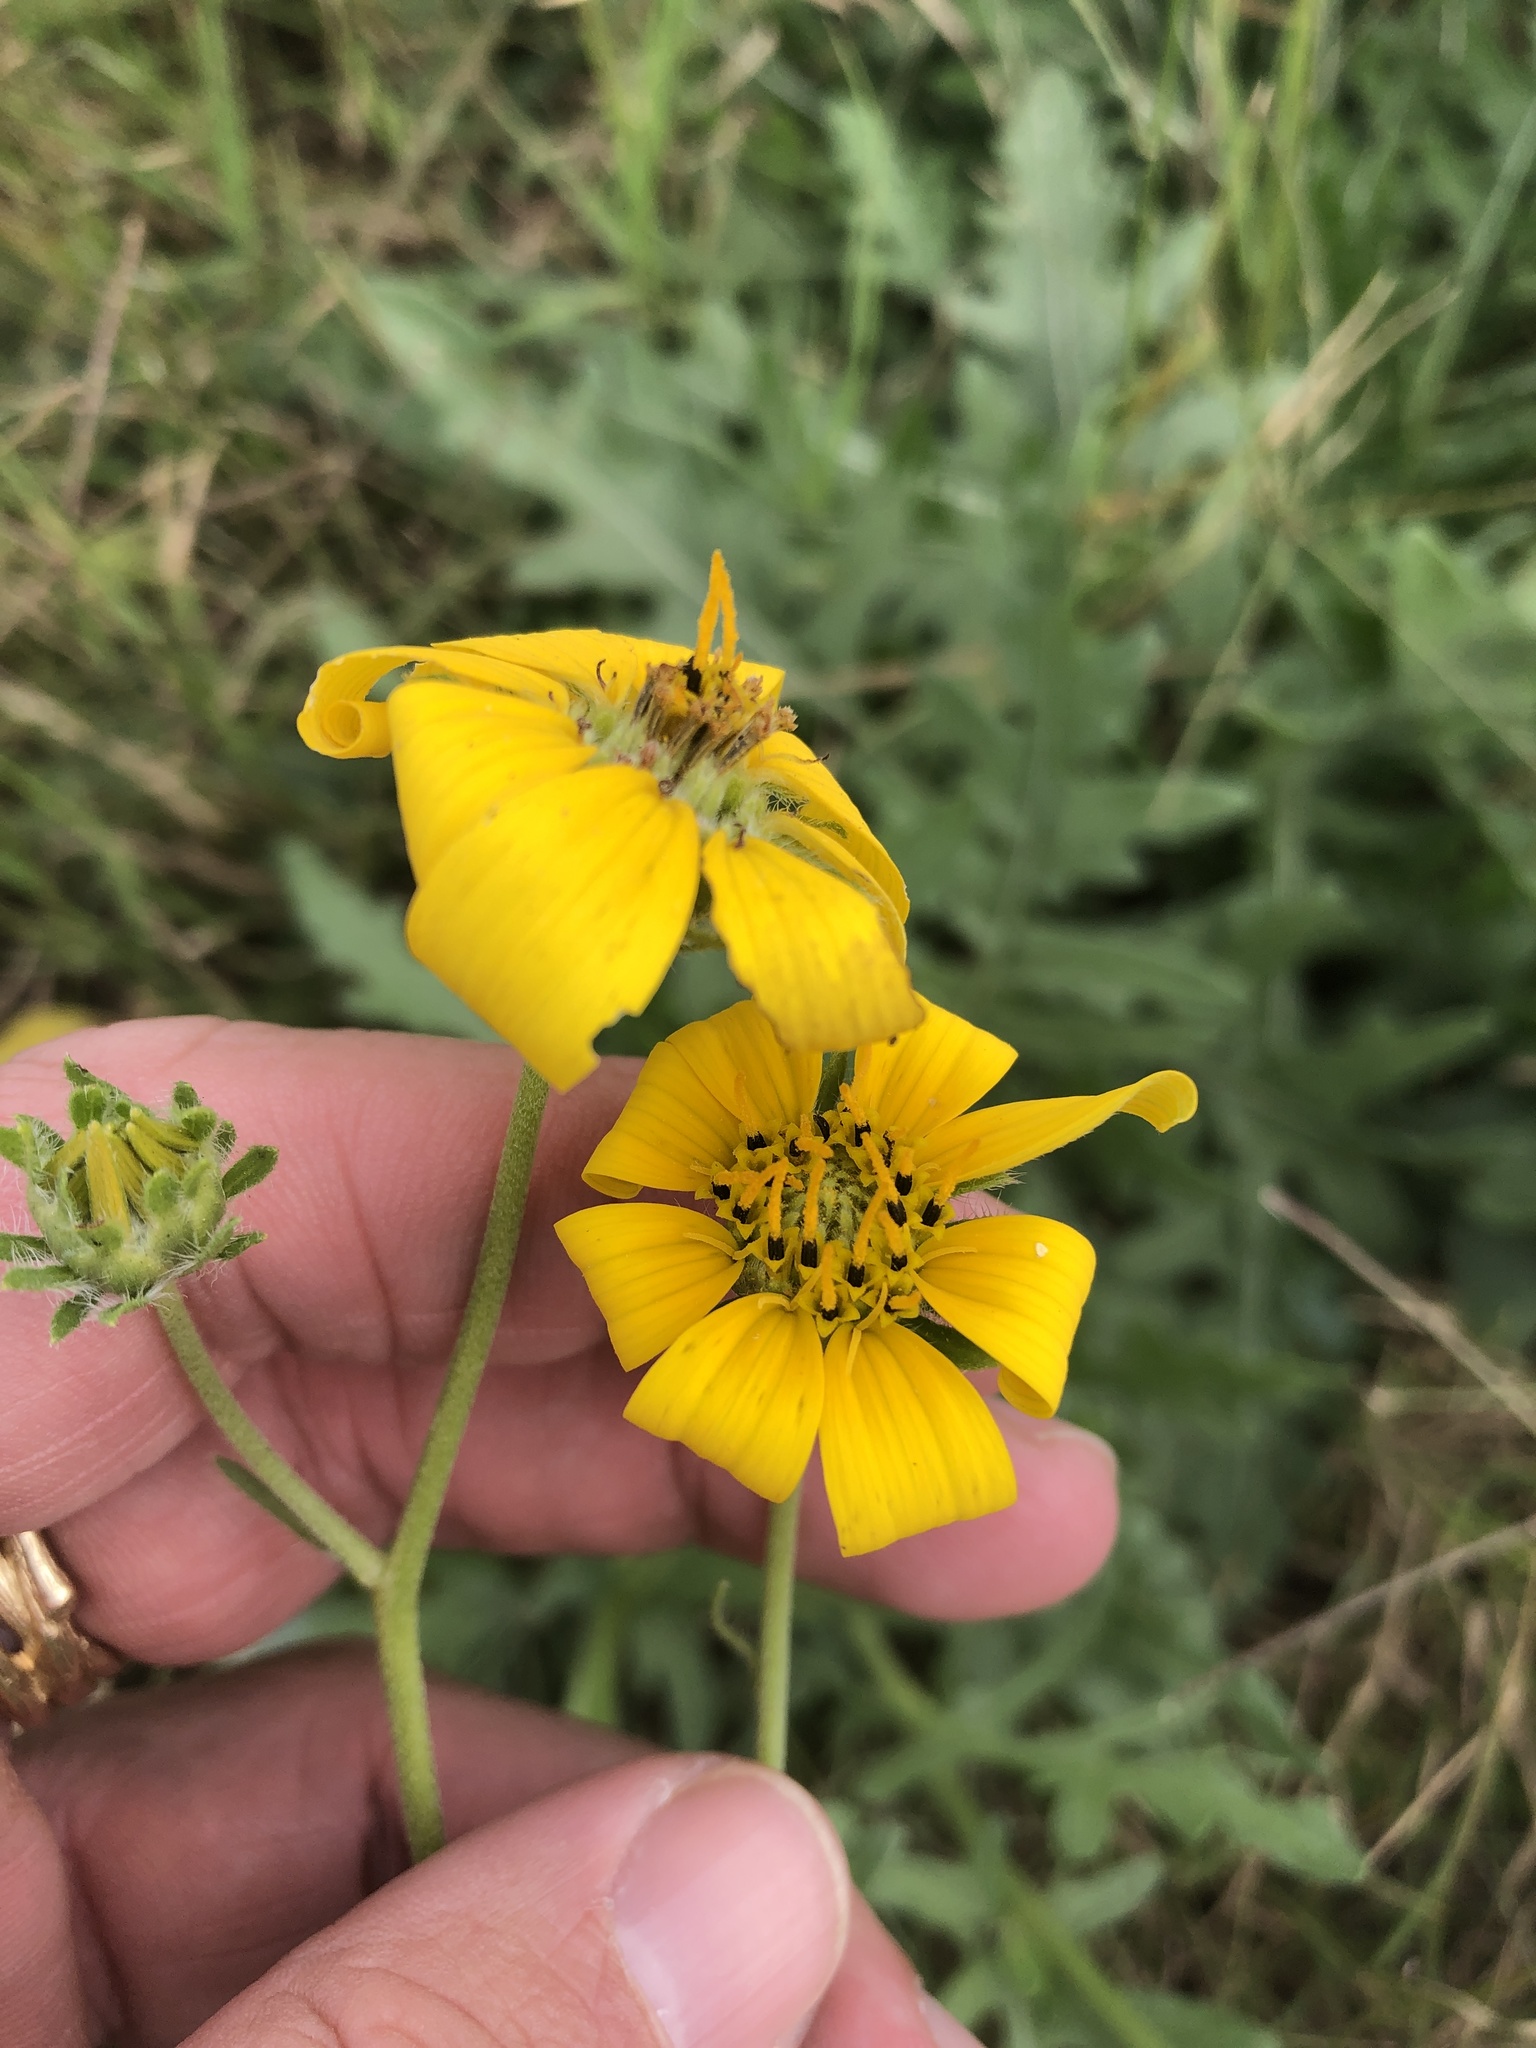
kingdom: Plantae
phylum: Tracheophyta
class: Magnoliopsida
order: Asterales
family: Asteraceae
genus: Engelmannia
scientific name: Engelmannia peristenia
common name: Engelmann's daisy
